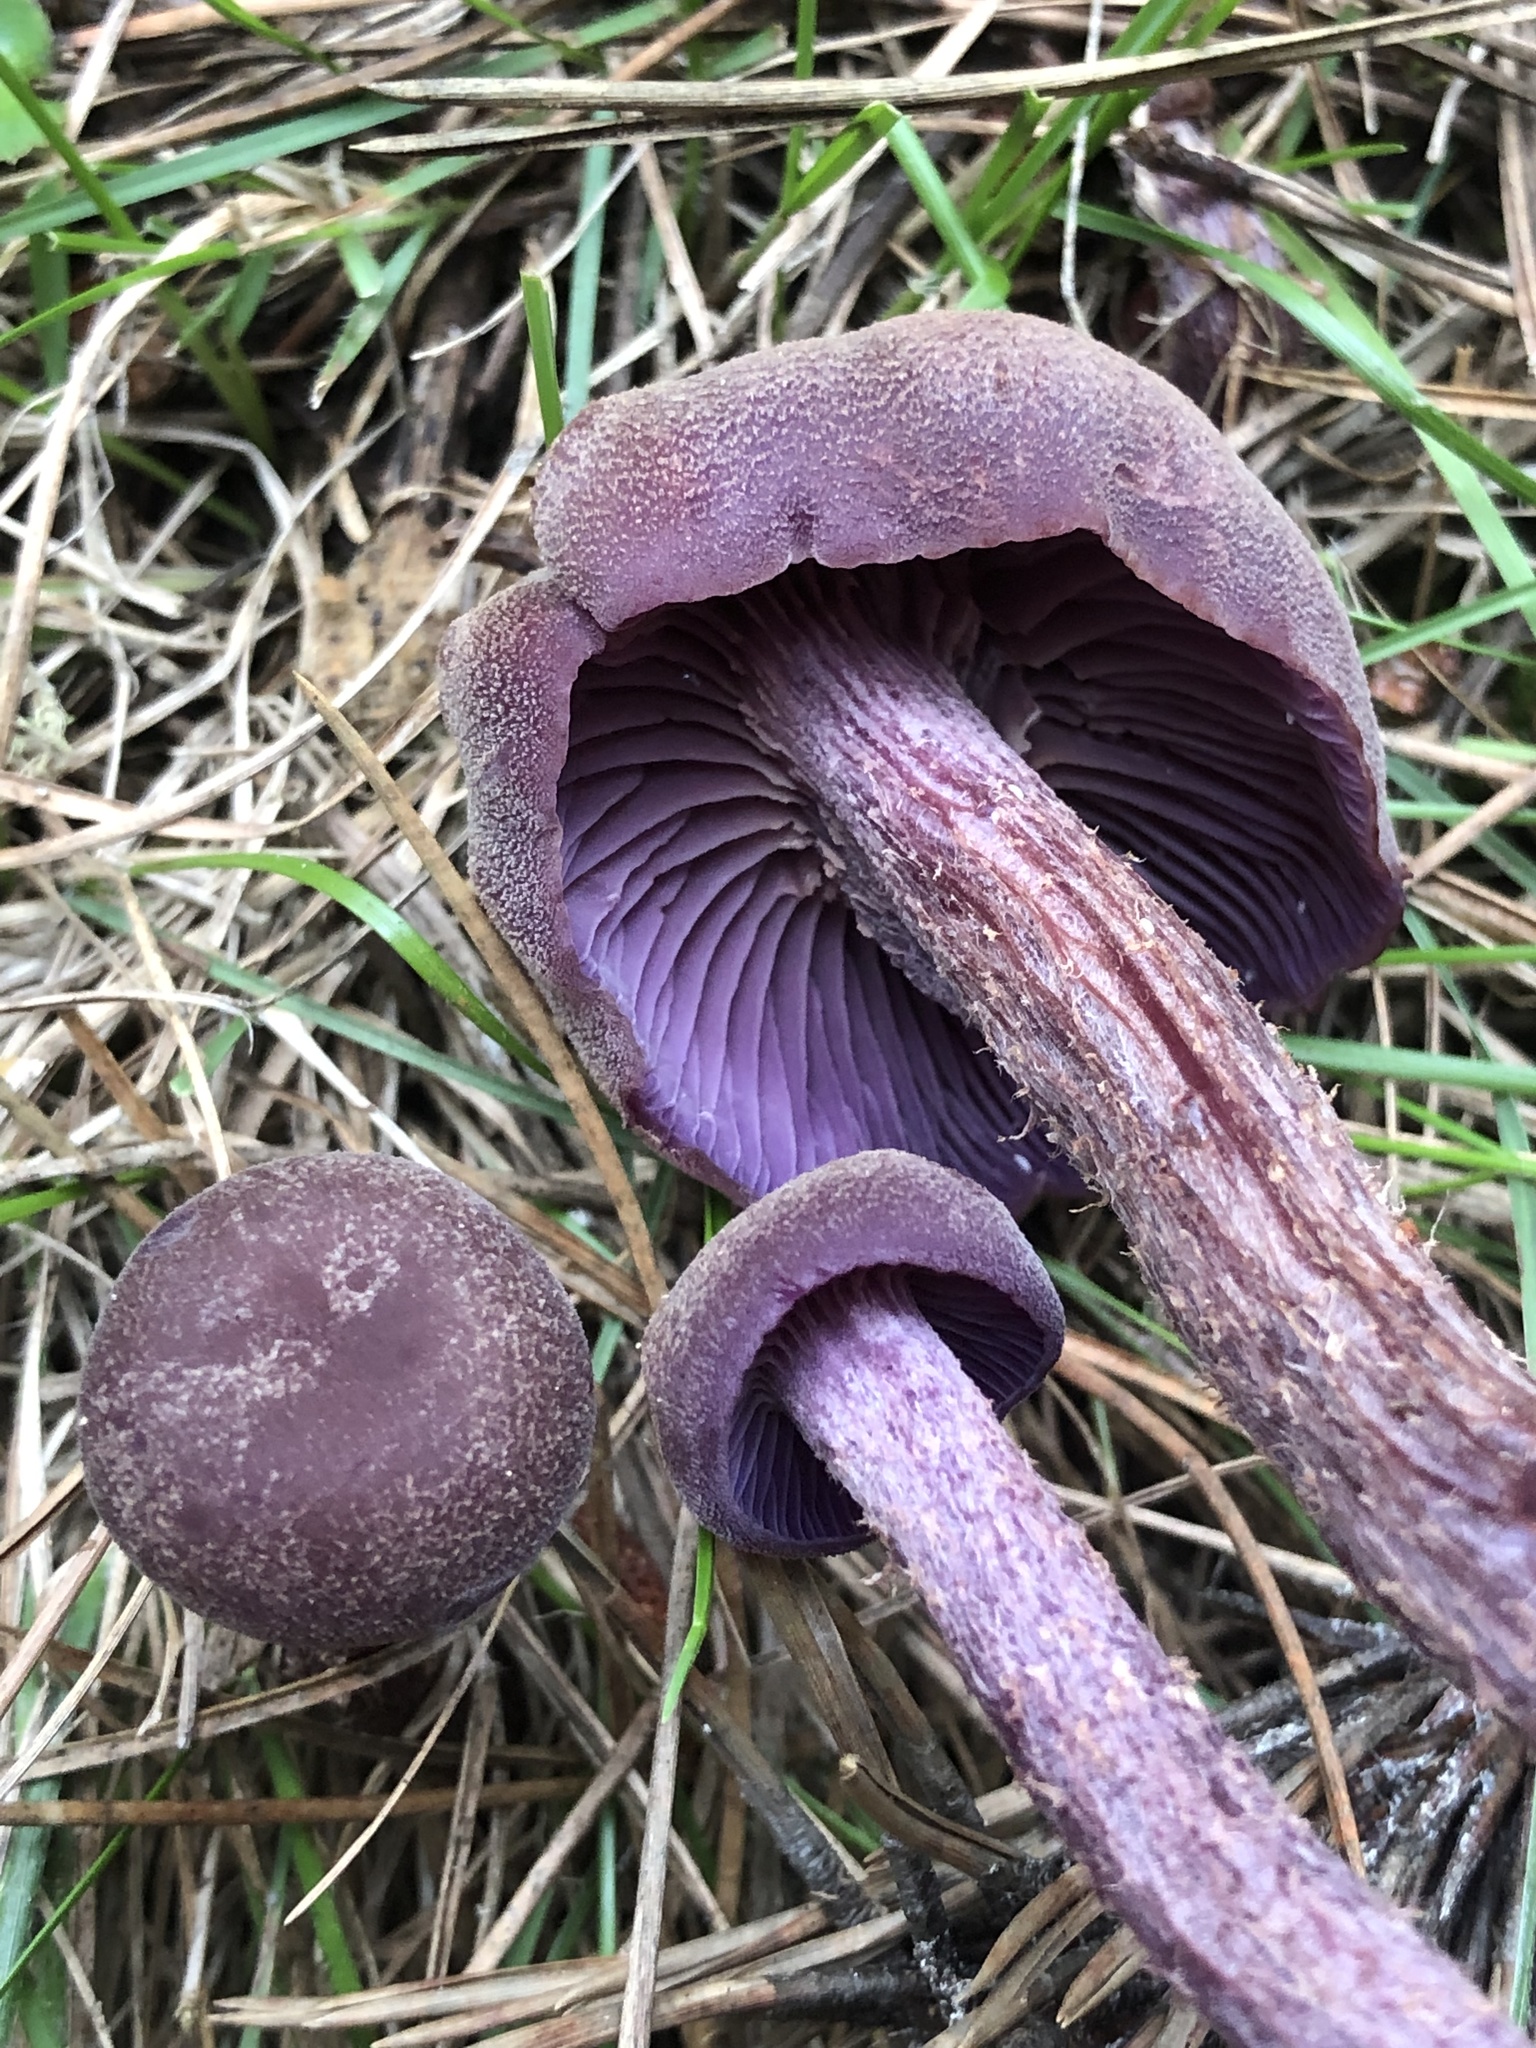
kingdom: Fungi
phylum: Basidiomycota
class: Agaricomycetes
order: Agaricales
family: Hydnangiaceae
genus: Laccaria
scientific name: Laccaria amethysteo-occidentalis
